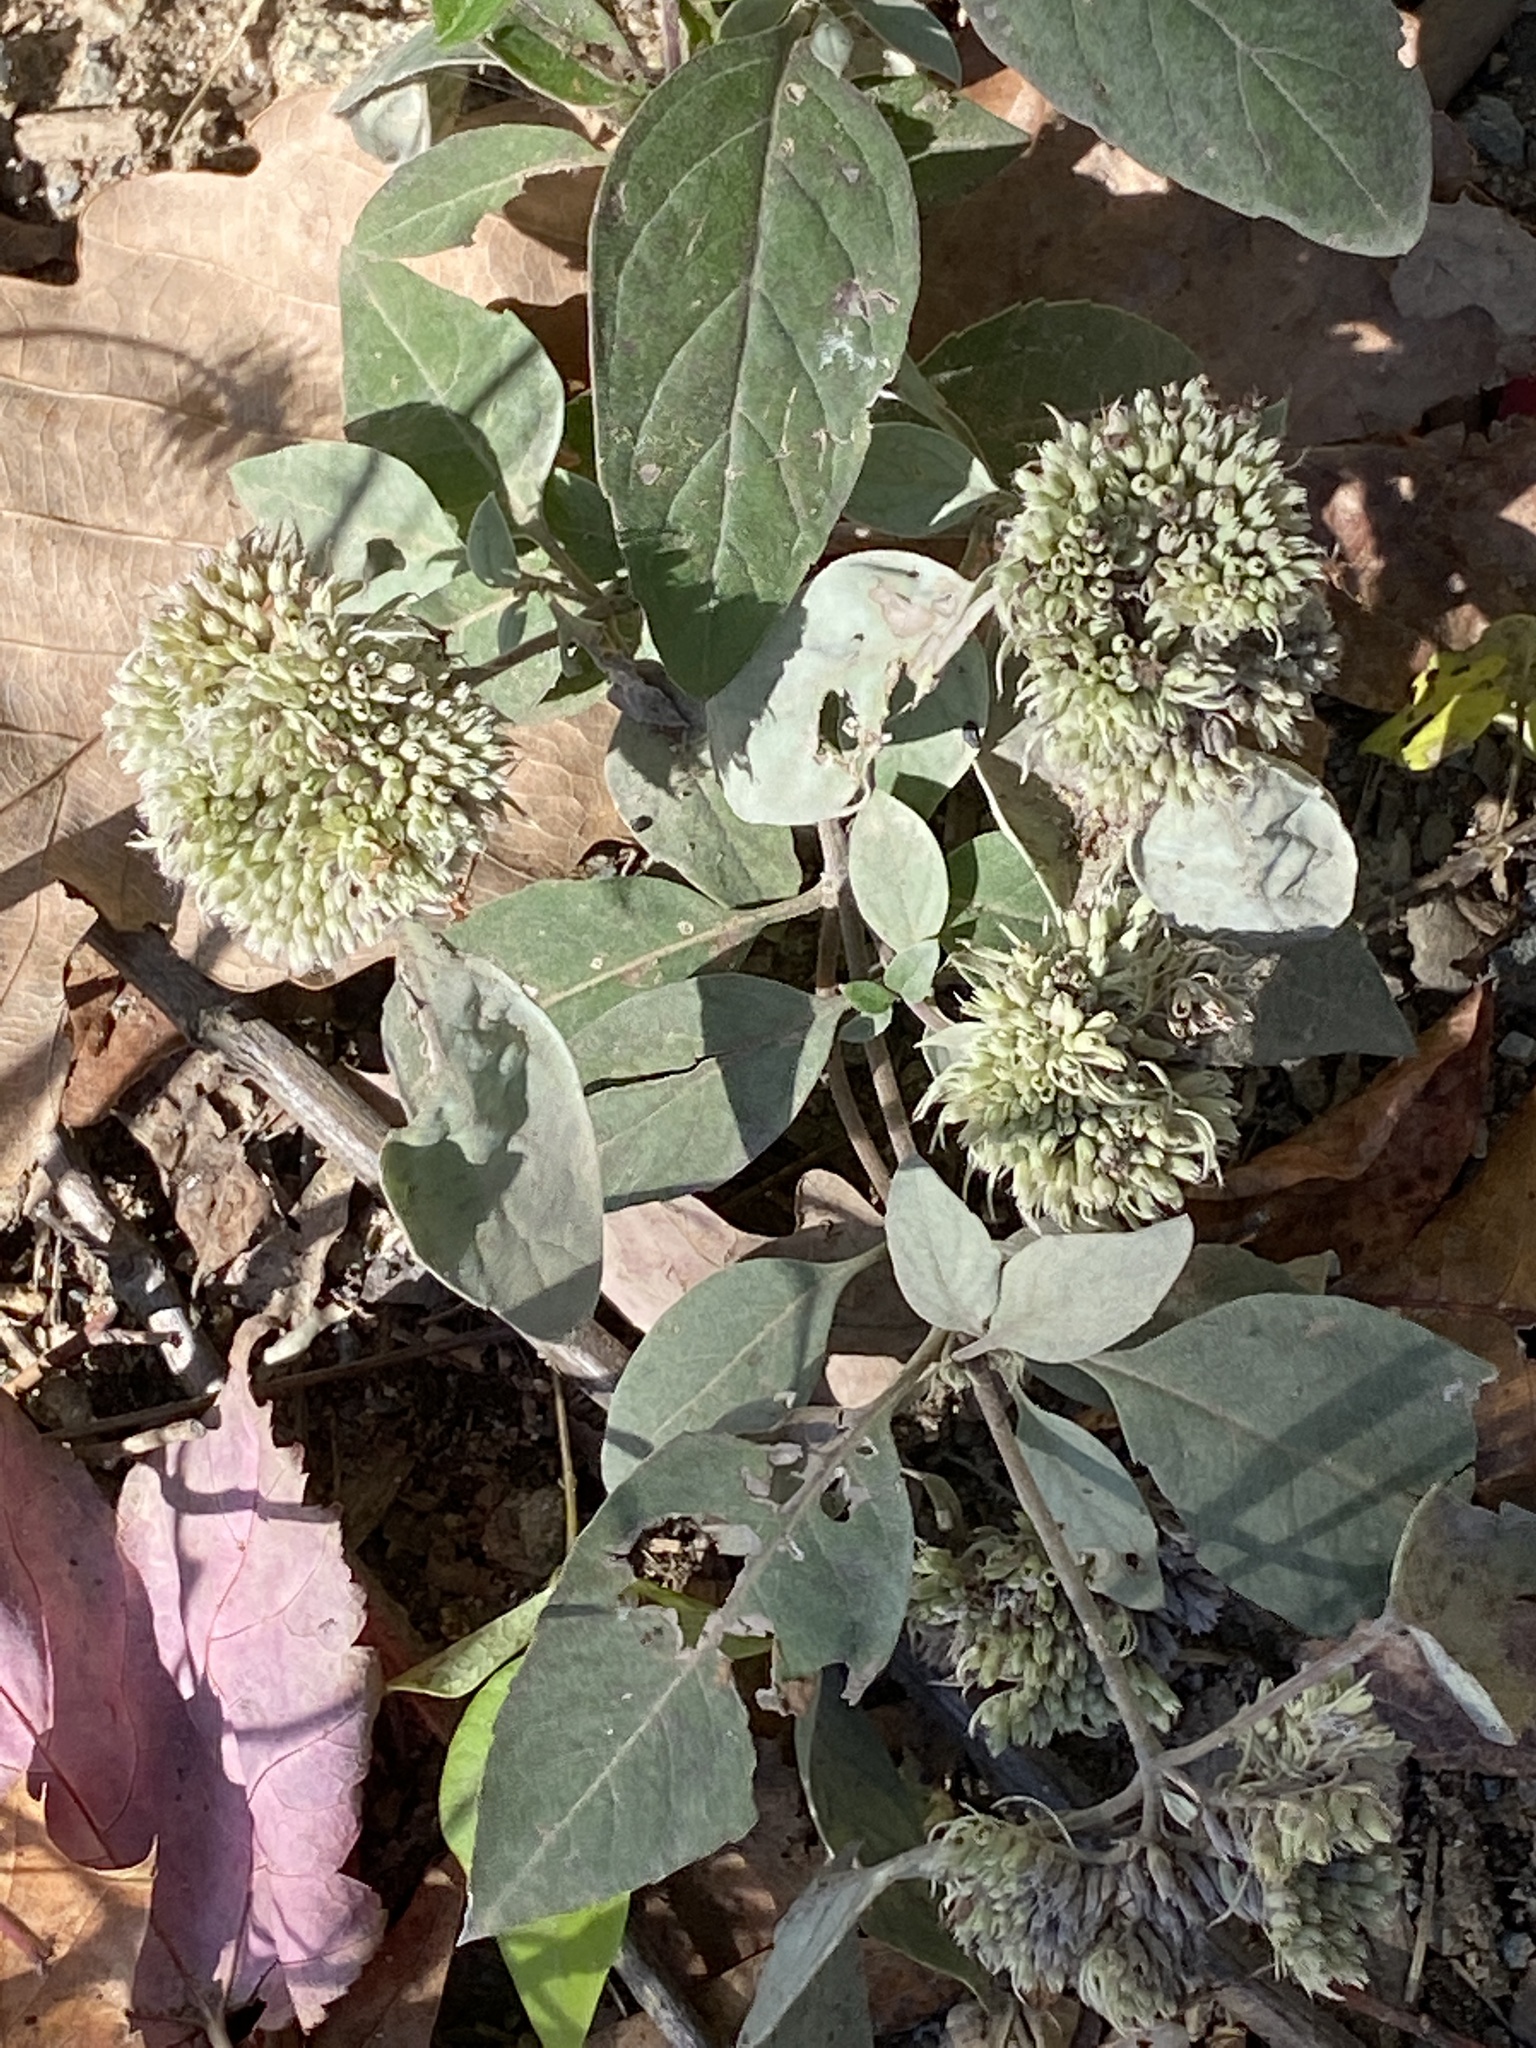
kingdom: Plantae
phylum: Tracheophyta
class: Magnoliopsida
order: Lamiales
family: Lamiaceae
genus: Pycnanthemum
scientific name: Pycnanthemum muticum
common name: Blunt mountain-mint
